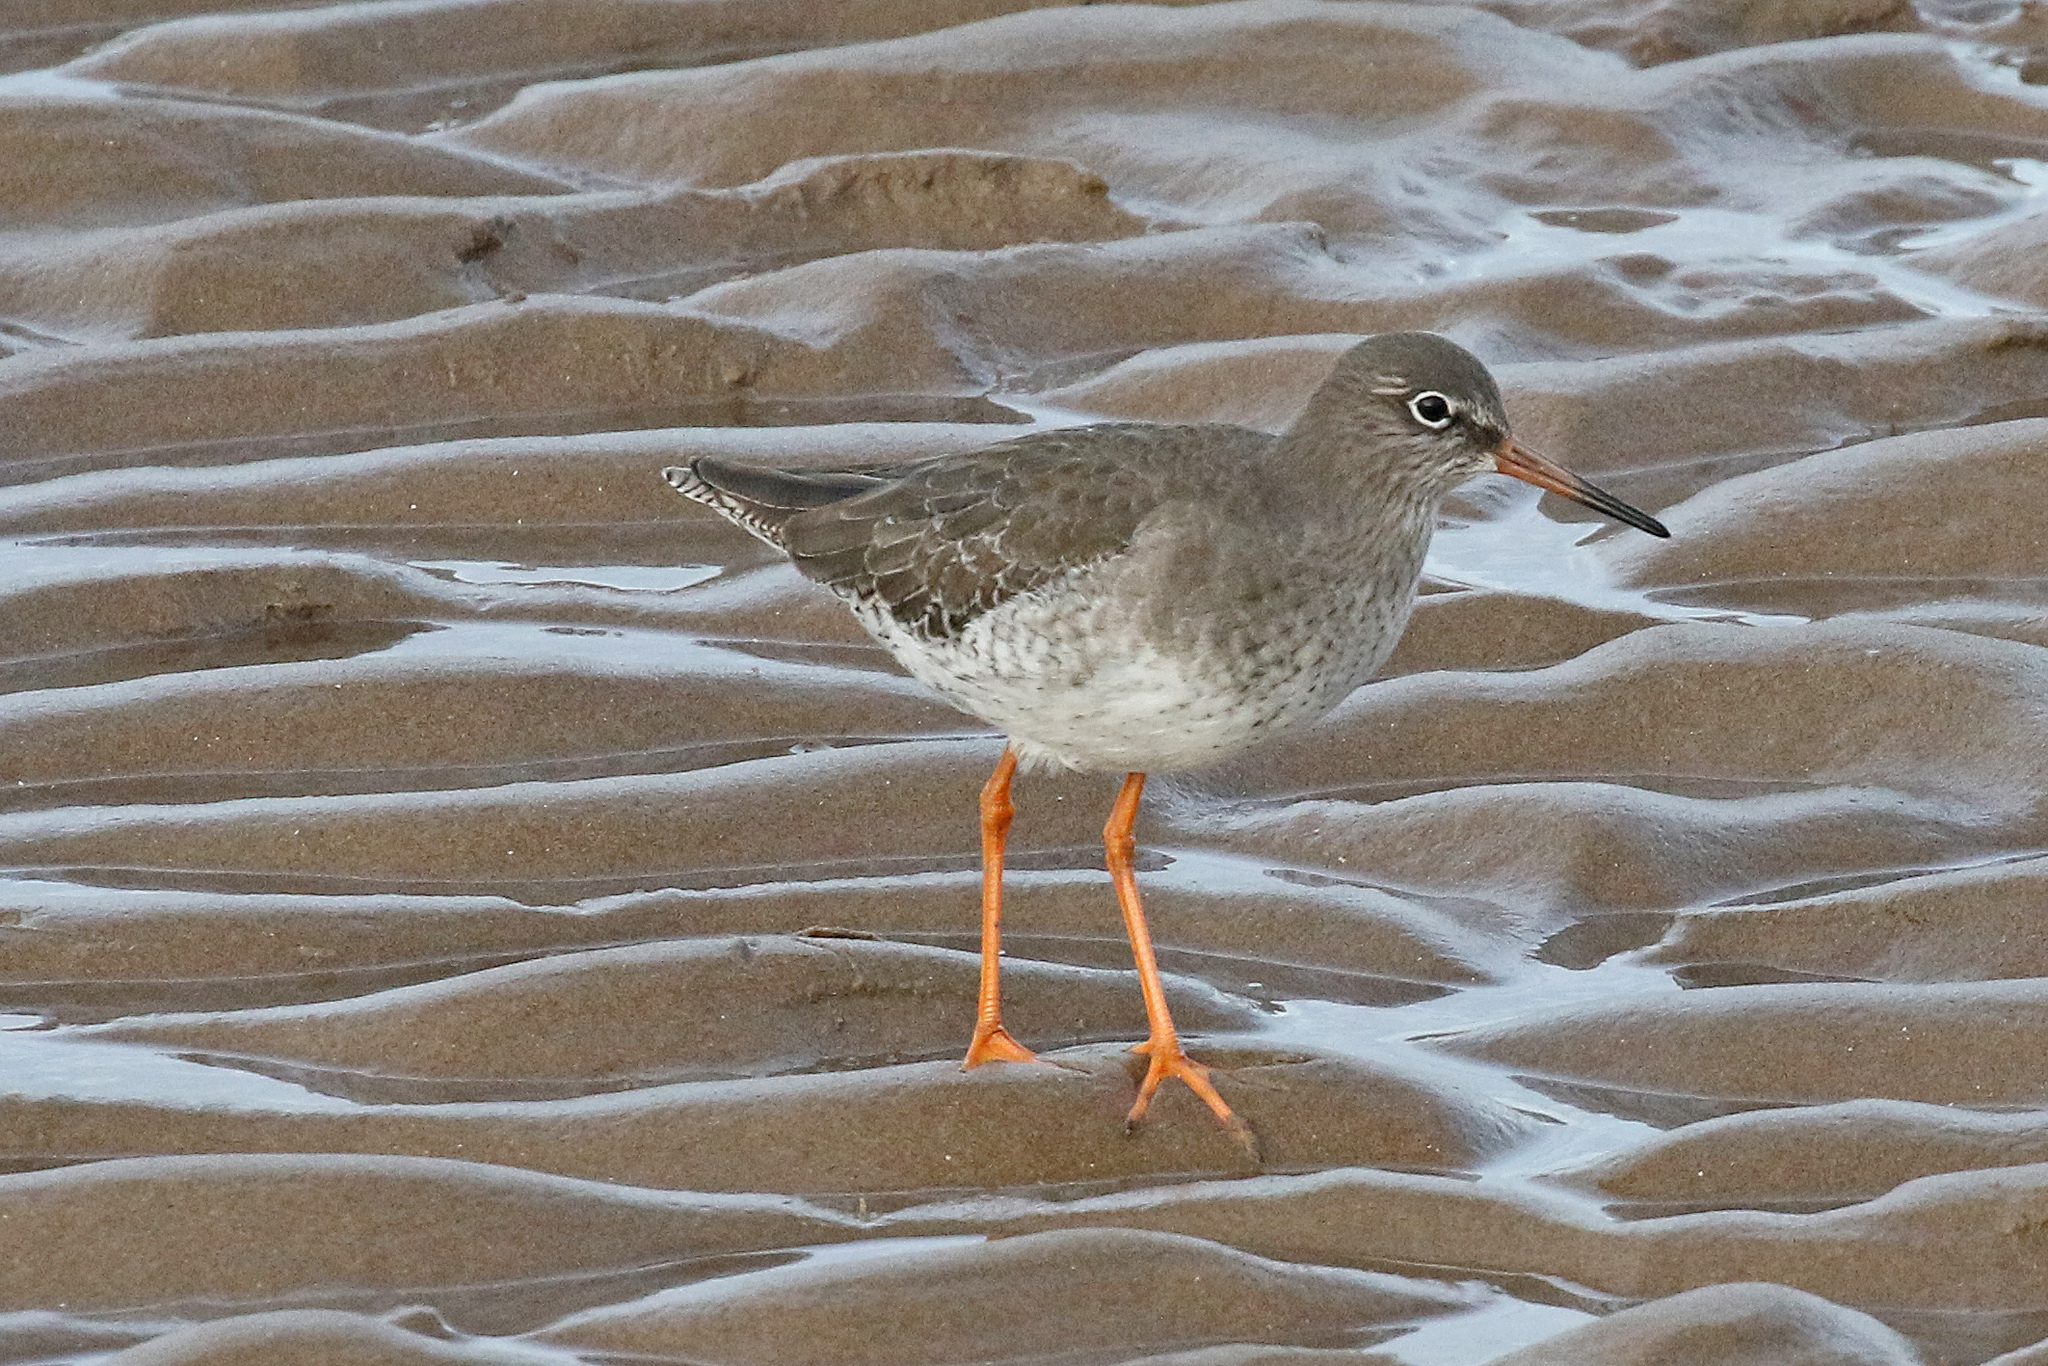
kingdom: Animalia
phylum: Chordata
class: Aves
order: Charadriiformes
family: Scolopacidae
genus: Tringa
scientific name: Tringa totanus
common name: Common redshank
